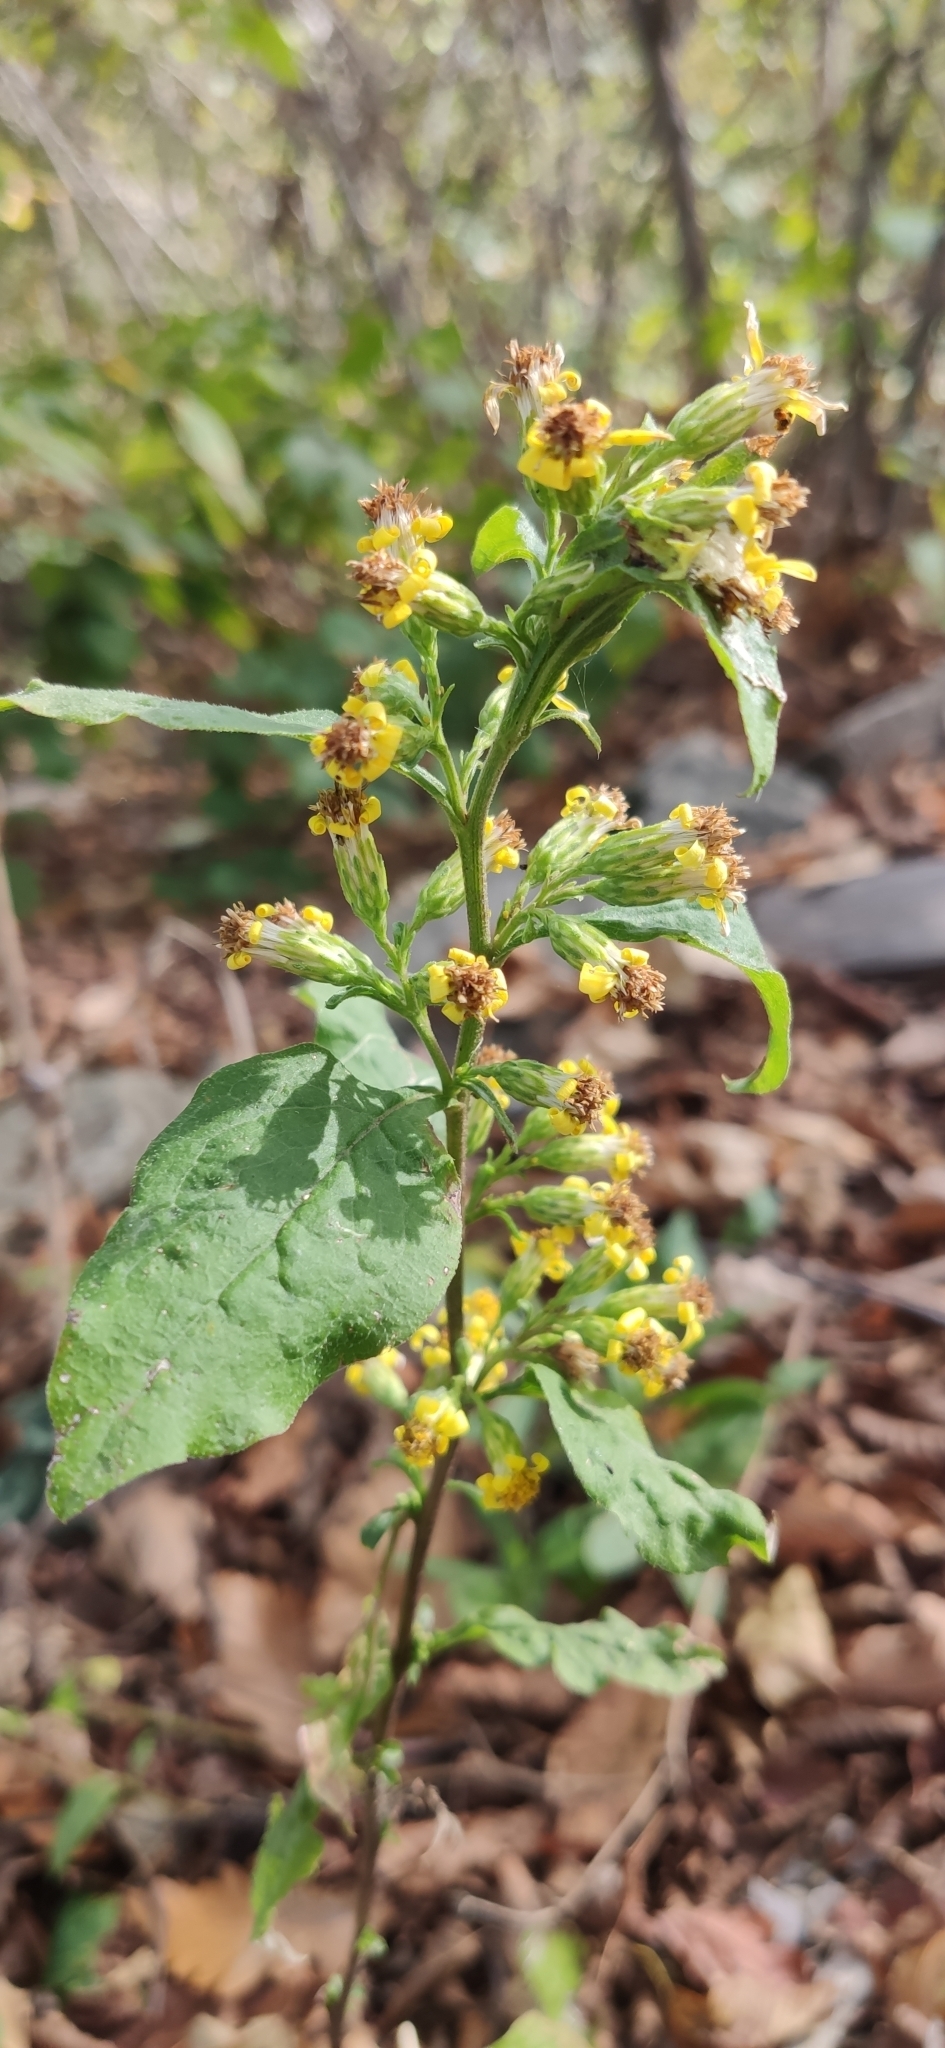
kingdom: Plantae
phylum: Tracheophyta
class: Magnoliopsida
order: Asterales
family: Asteraceae
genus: Solidago
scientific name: Solidago virgaurea
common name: Goldenrod
